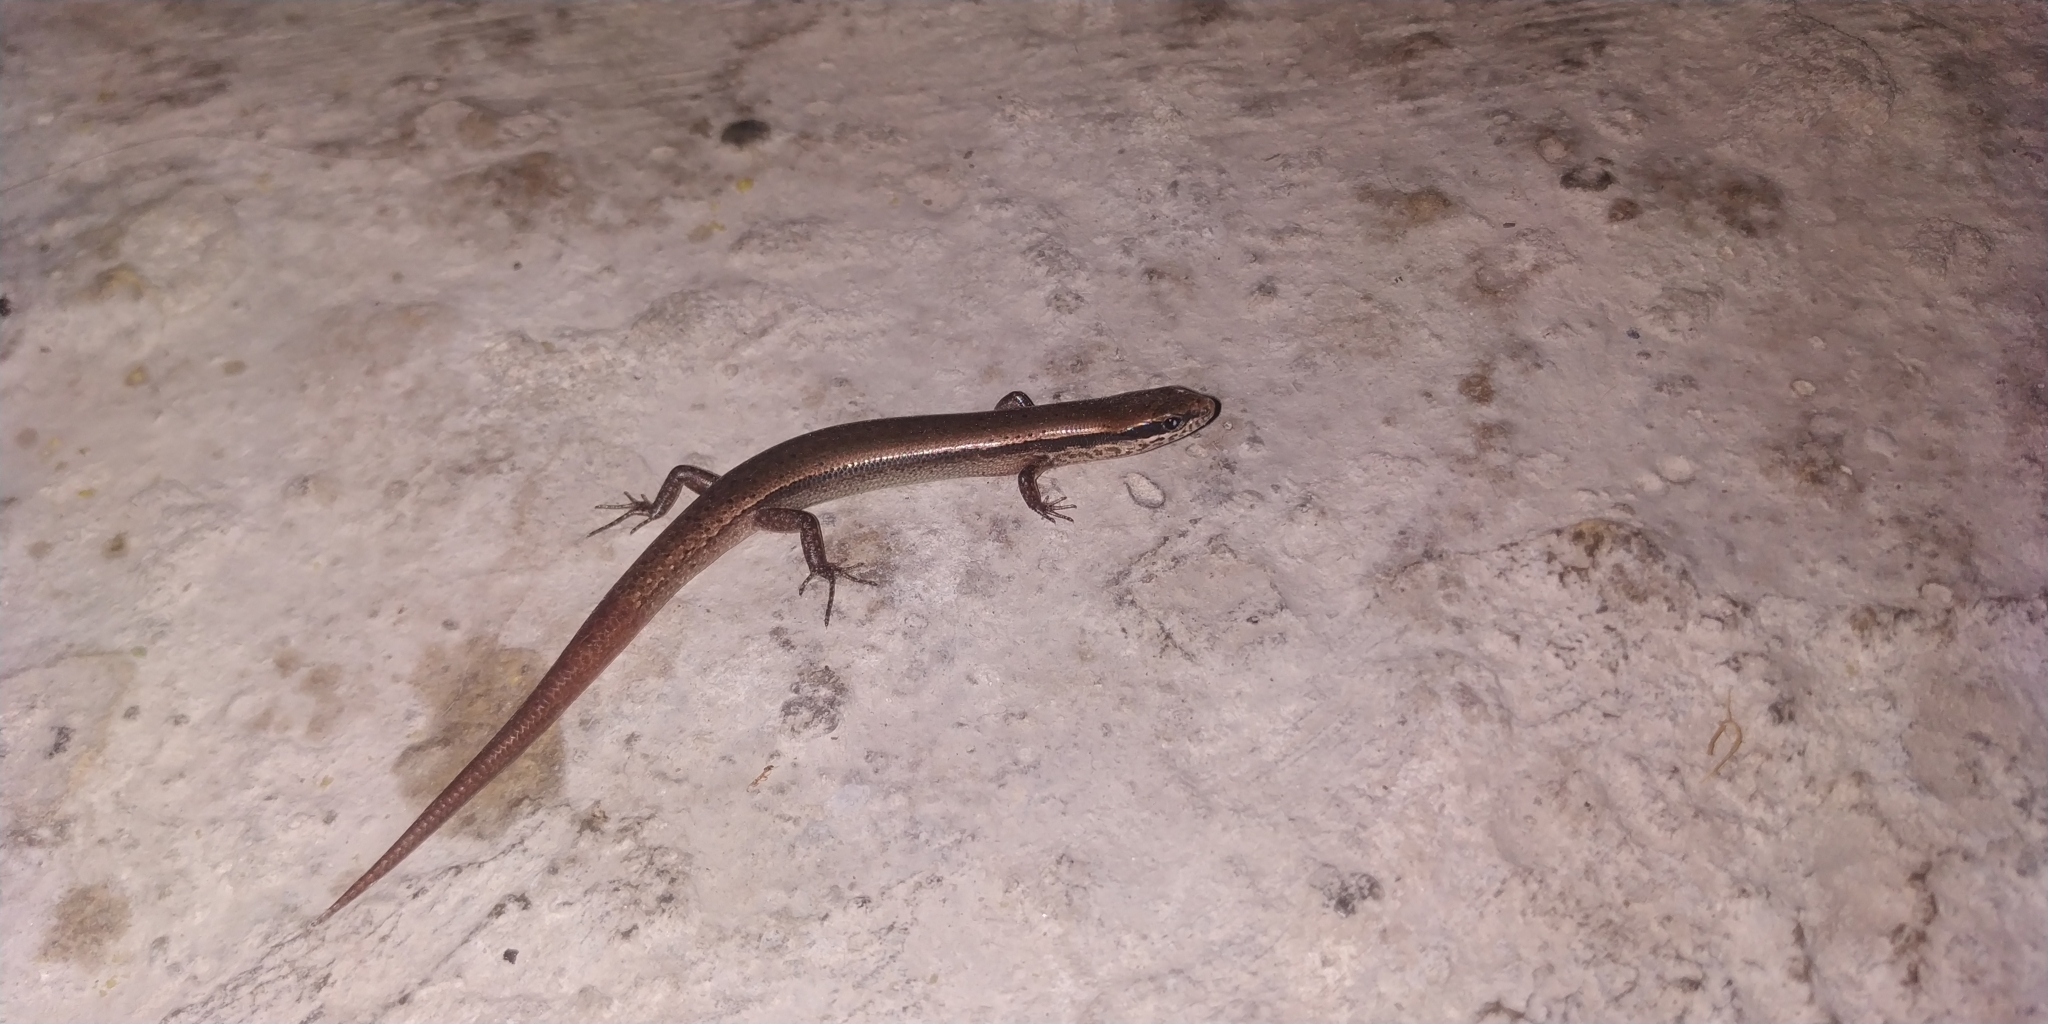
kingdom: Animalia
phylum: Chordata
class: Squamata
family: Scincidae
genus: Scincella
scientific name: Scincella gemmingeri
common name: Cope’s forest ground skink
